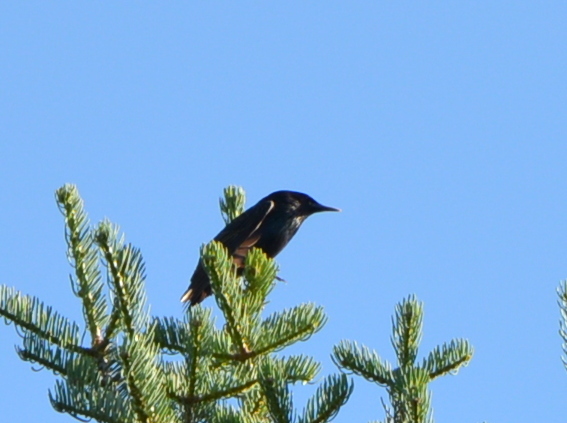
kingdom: Animalia
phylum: Chordata
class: Aves
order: Passeriformes
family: Sturnidae
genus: Sturnus
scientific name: Sturnus vulgaris
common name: Common starling
